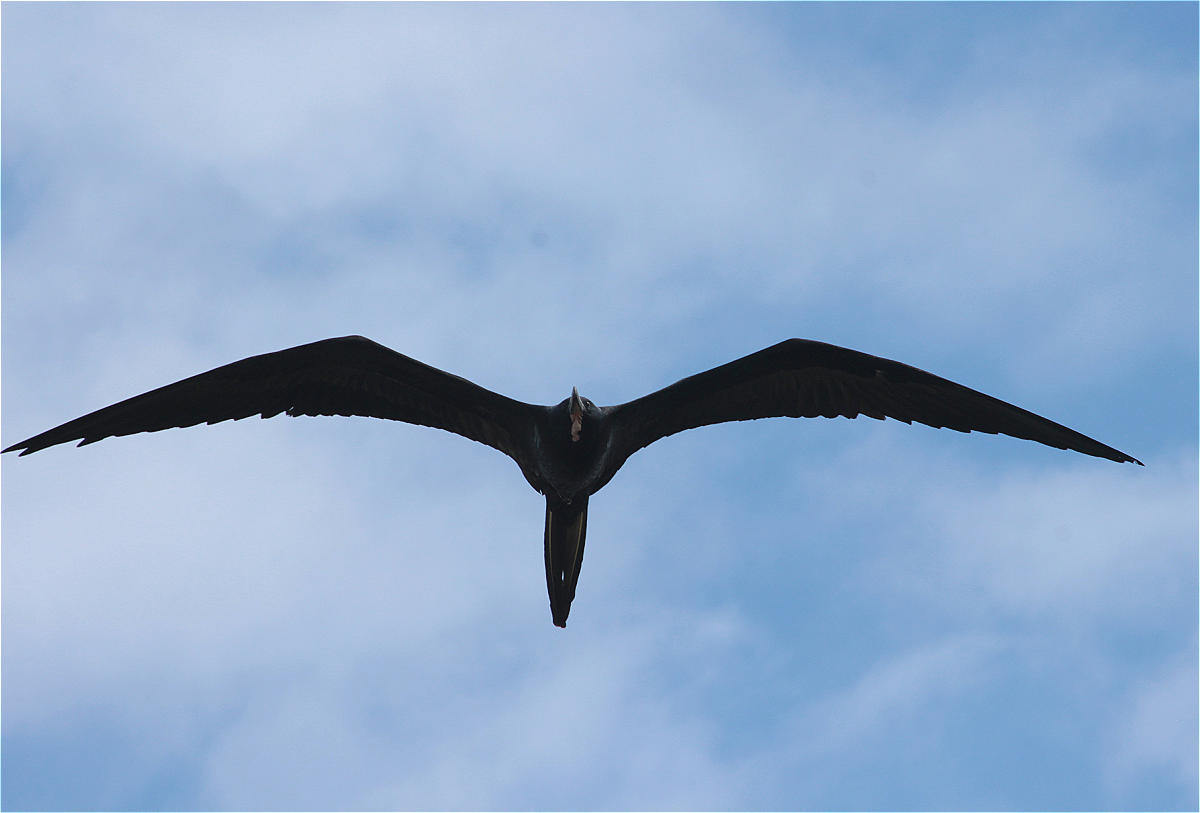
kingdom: Animalia
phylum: Chordata
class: Aves
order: Suliformes
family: Fregatidae
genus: Fregata
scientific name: Fregata magnificens
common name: Magnificent frigatebird
